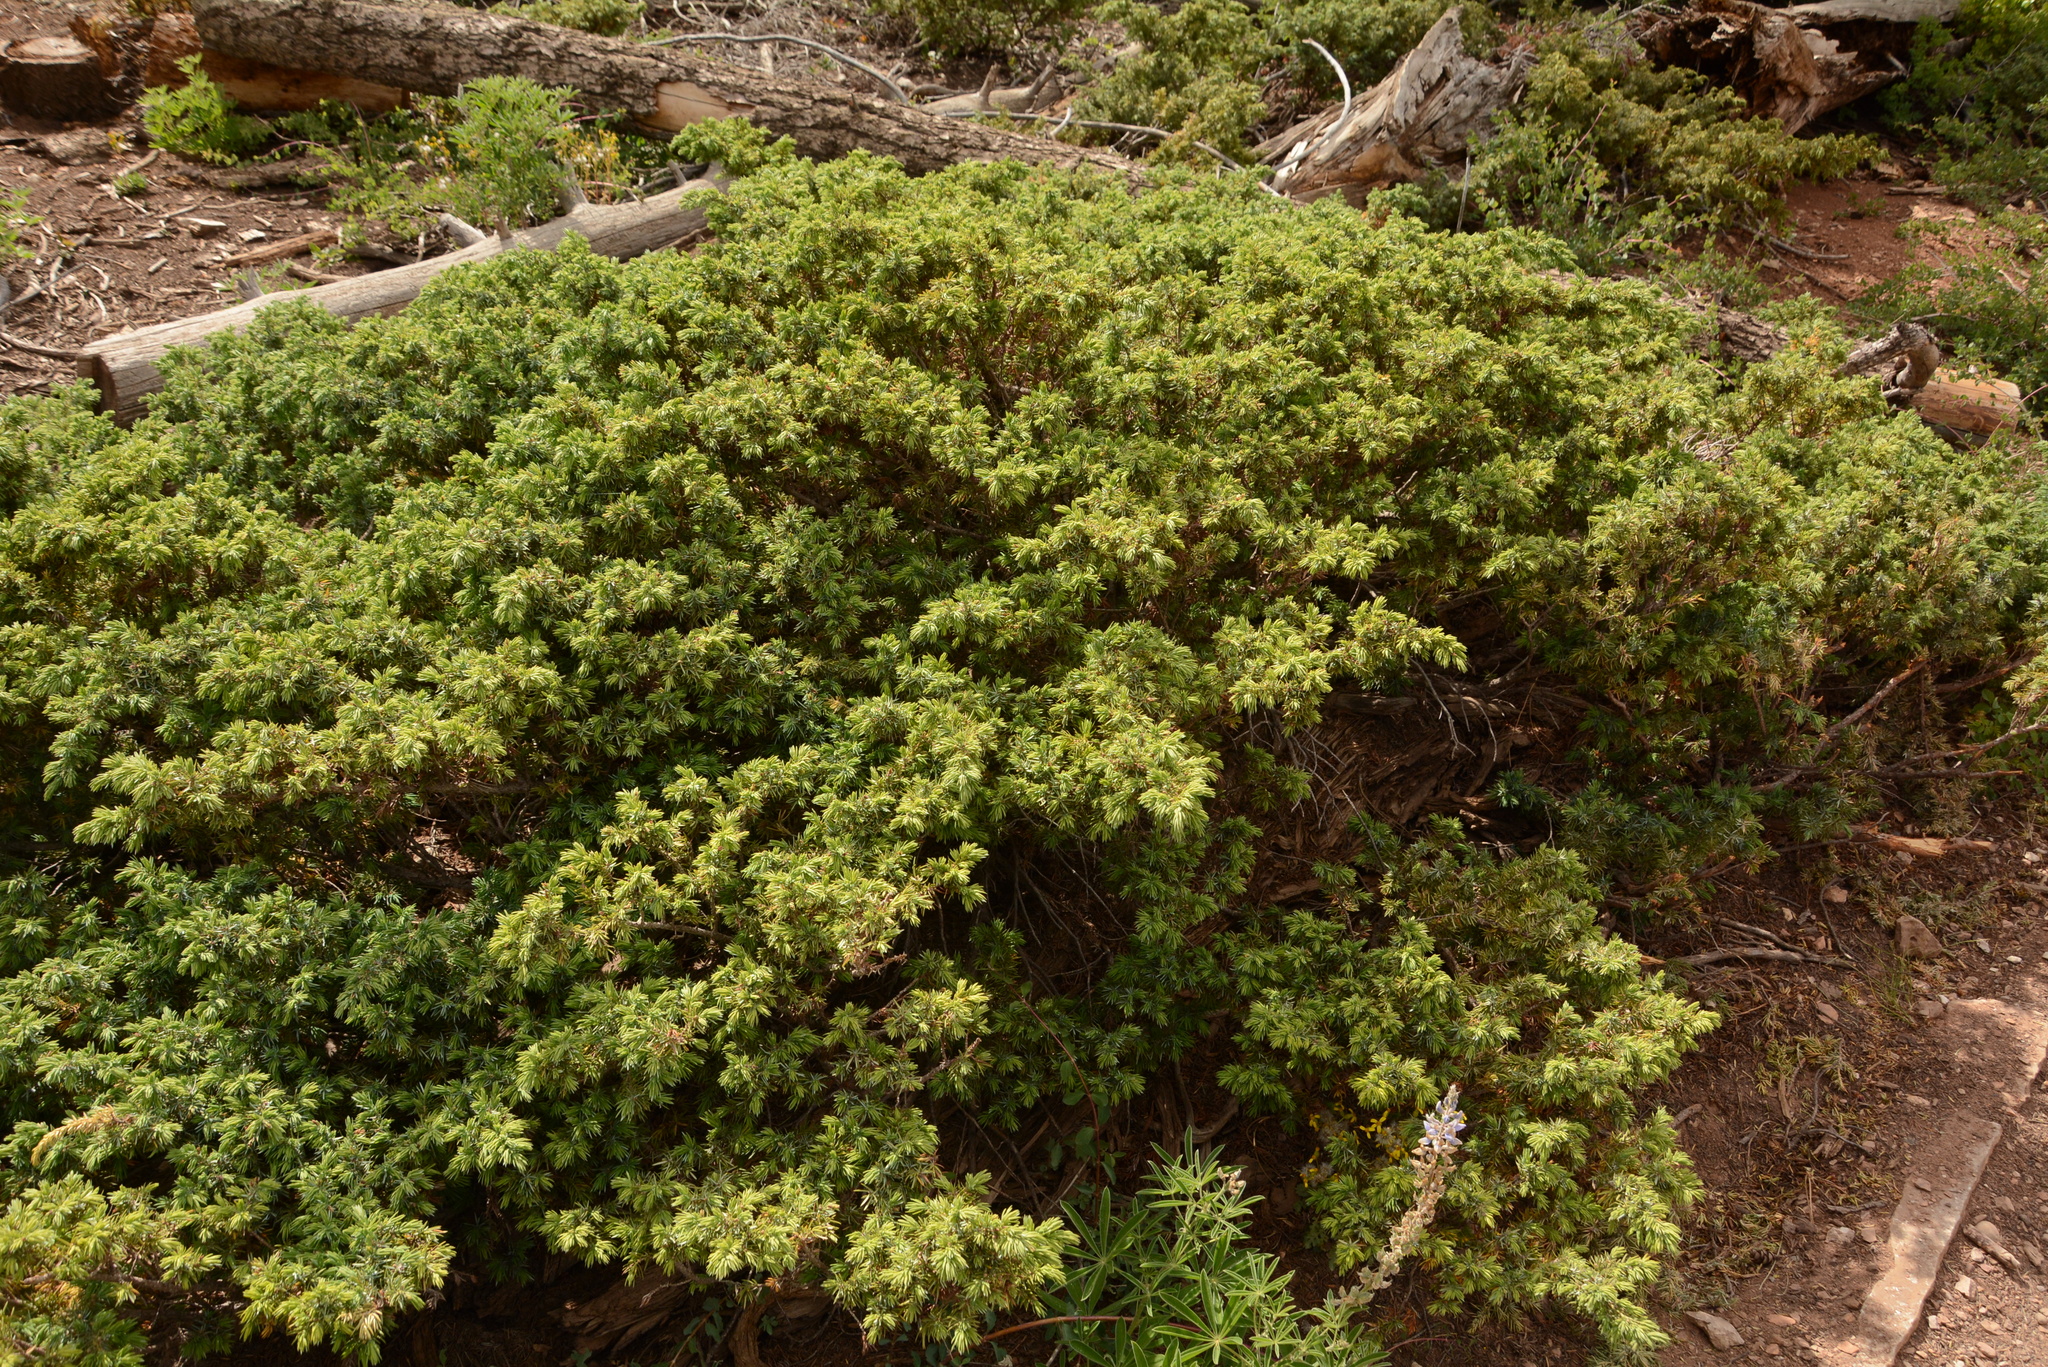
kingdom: Plantae
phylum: Tracheophyta
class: Pinopsida
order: Pinales
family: Cupressaceae
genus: Juniperus
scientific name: Juniperus communis
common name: Common juniper
